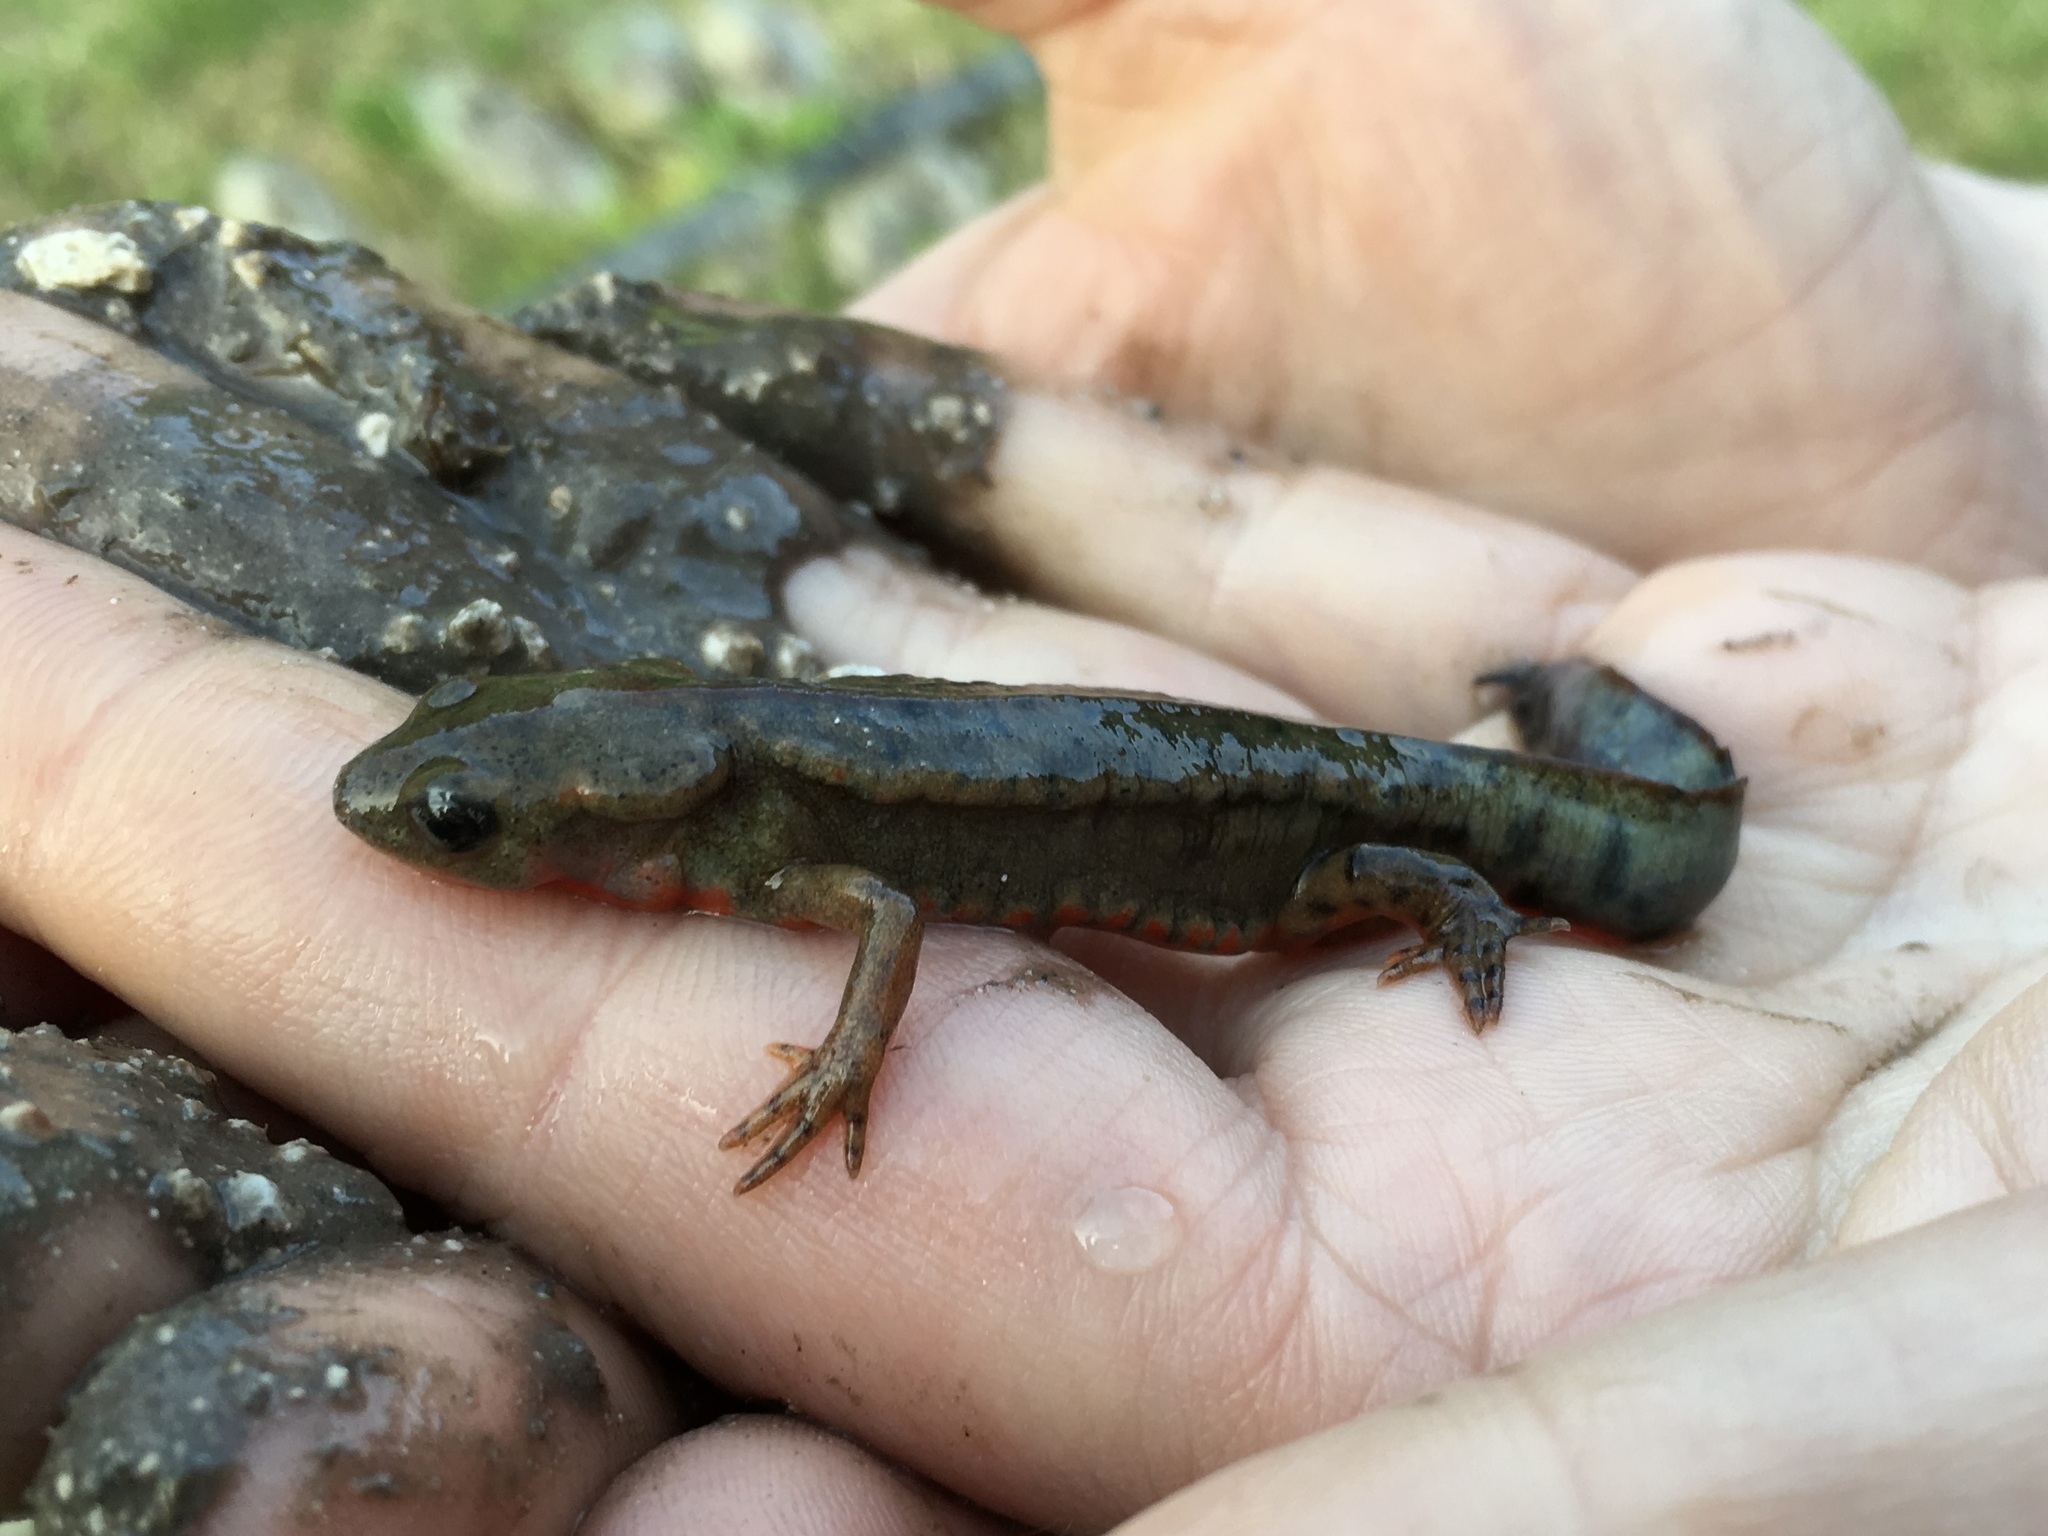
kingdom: Animalia
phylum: Chordata
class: Amphibia
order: Caudata
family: Salamandridae
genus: Cynops
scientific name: Cynops pyrrhogaster
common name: Japanese fire-bellied newt
